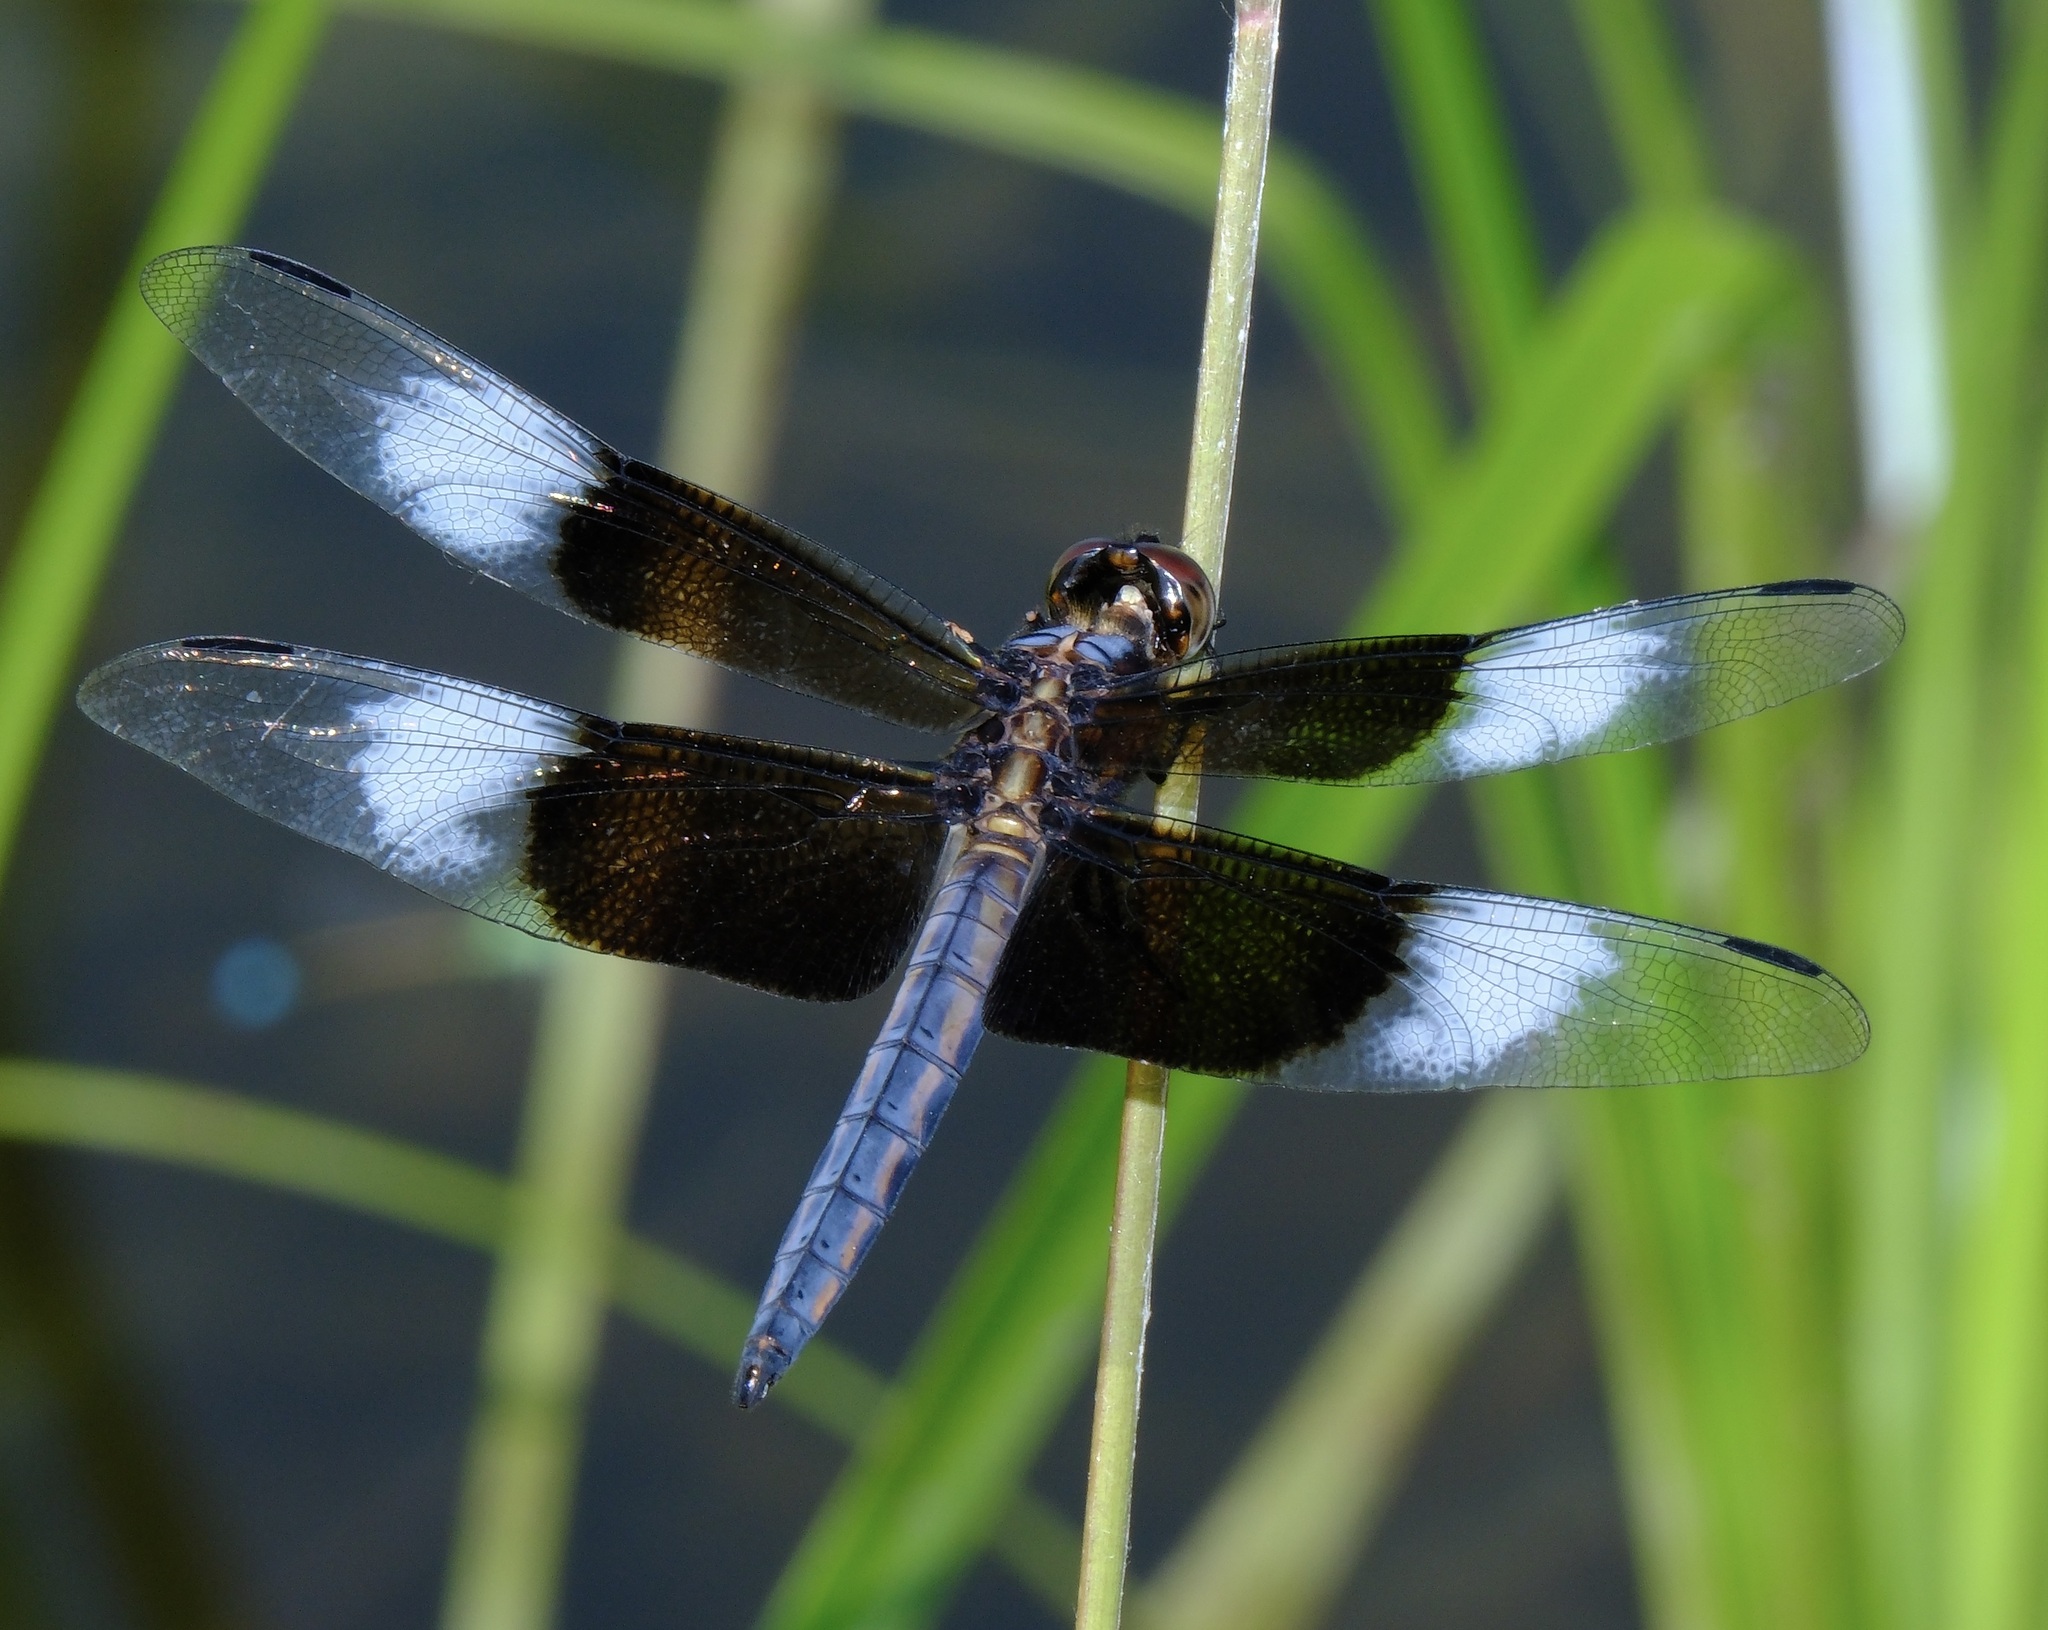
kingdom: Animalia
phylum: Arthropoda
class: Insecta
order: Odonata
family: Libellulidae
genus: Libellula
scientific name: Libellula luctuosa
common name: Widow skimmer
